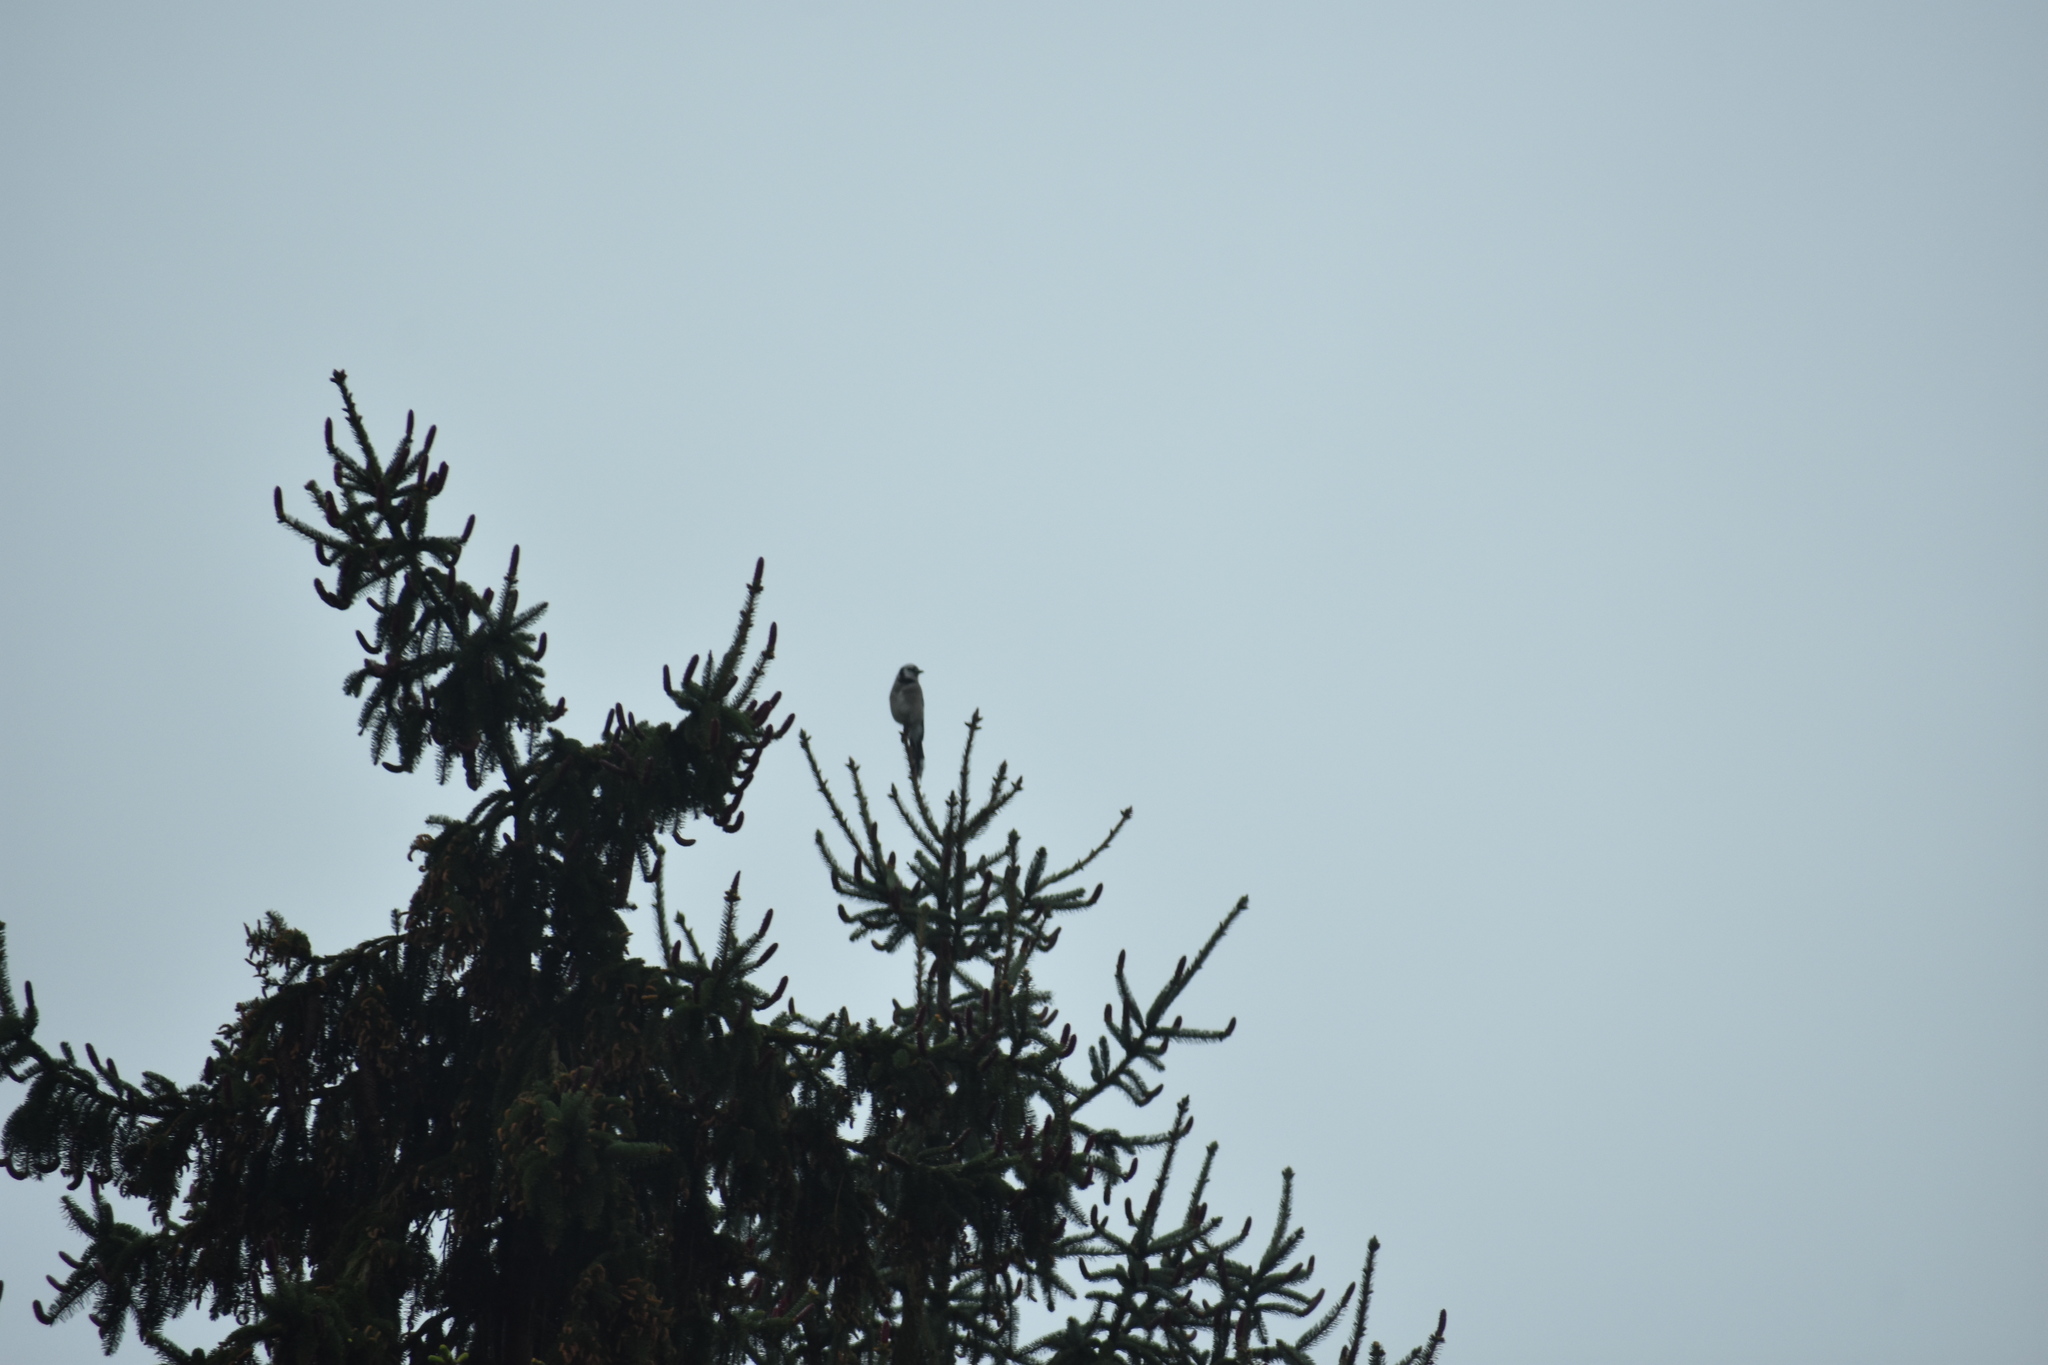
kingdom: Animalia
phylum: Chordata
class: Aves
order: Passeriformes
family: Corvidae
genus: Cyanocitta
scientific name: Cyanocitta cristata
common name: Blue jay
